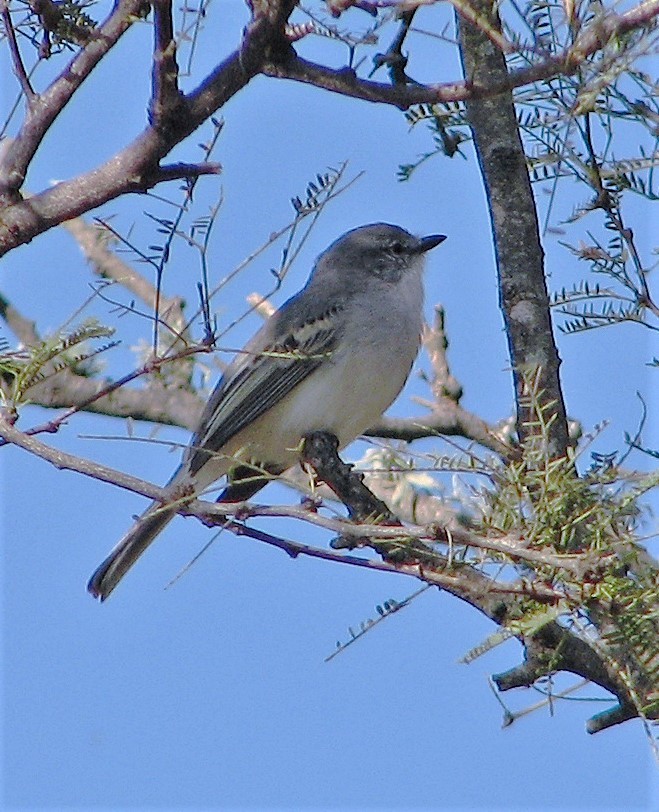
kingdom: Animalia
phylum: Chordata
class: Aves
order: Passeriformes
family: Tyrannidae
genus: Suiriri
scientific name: Suiriri suiriri
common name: Suiriri flycatcher
